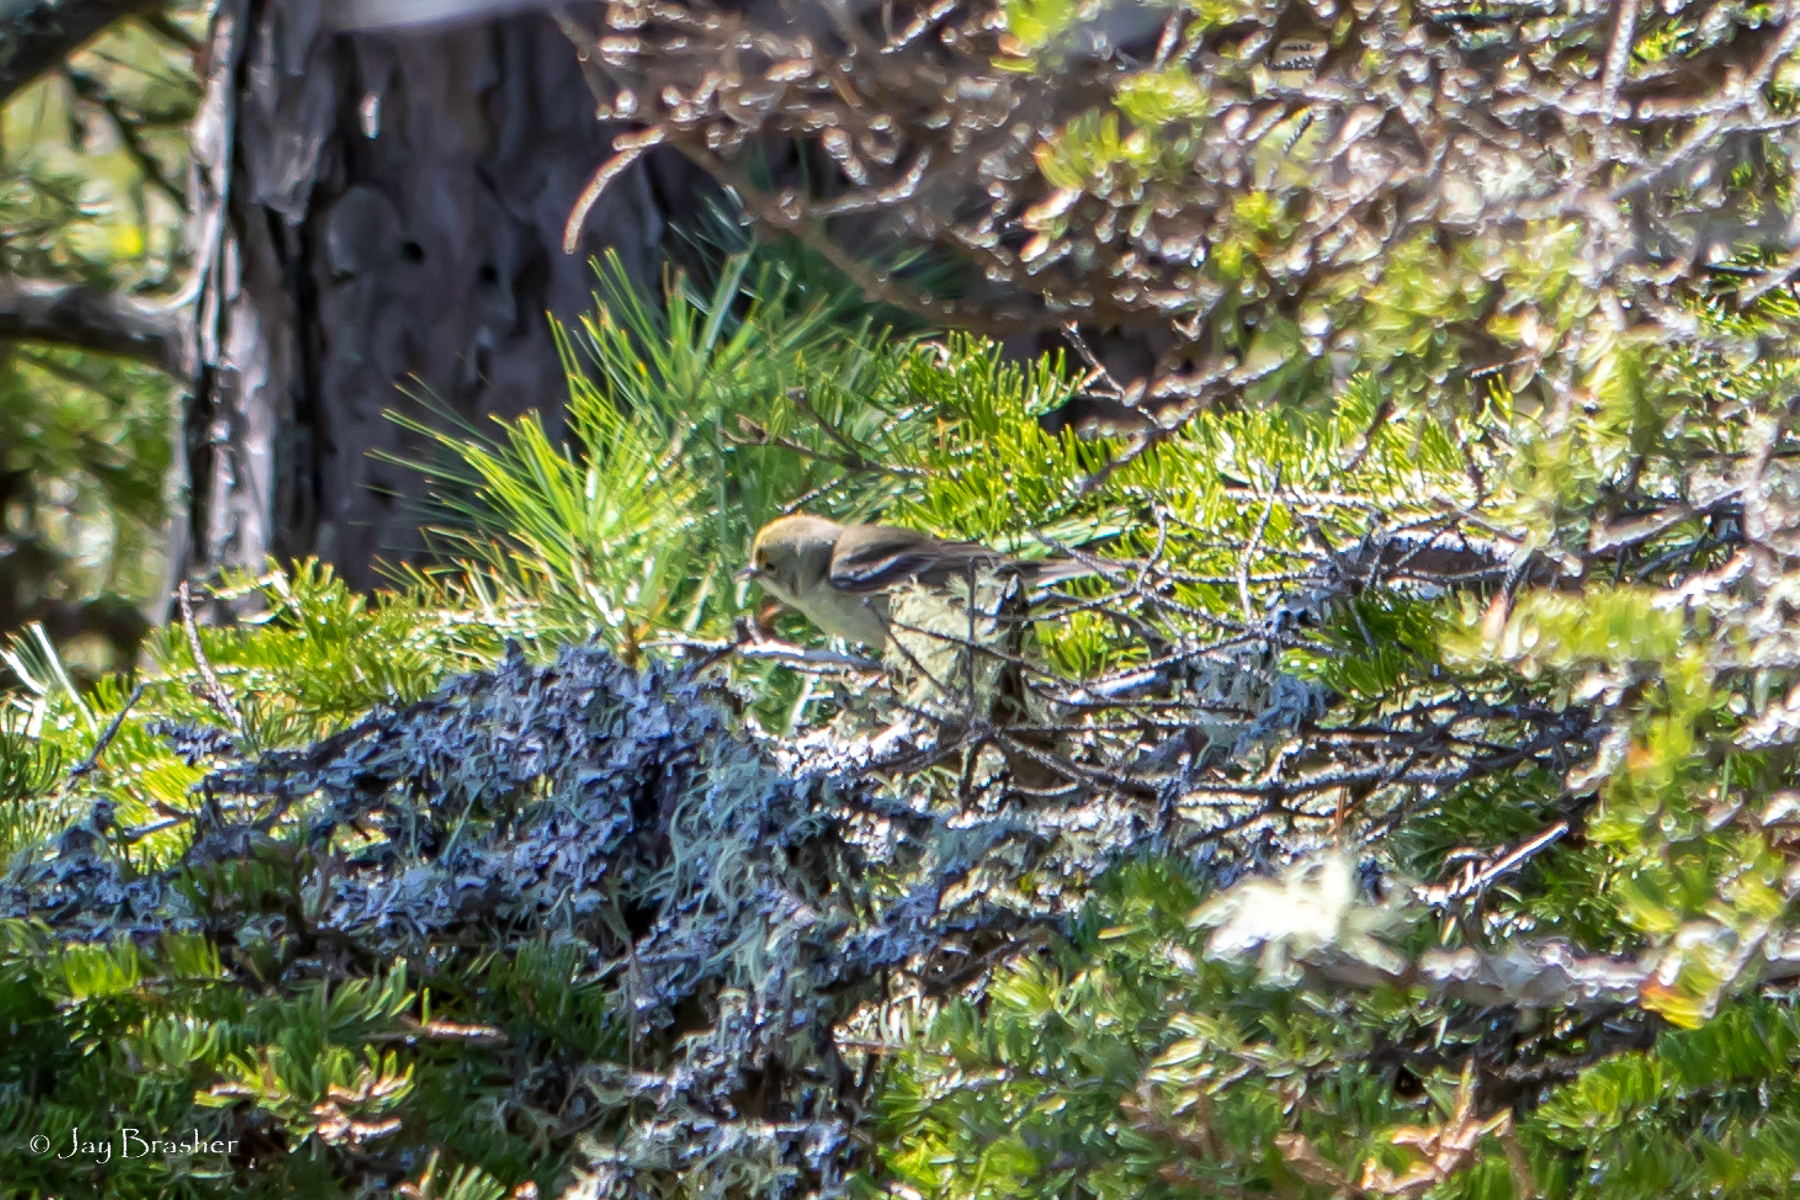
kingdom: Animalia
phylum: Chordata
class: Aves
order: Passeriformes
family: Parulidae
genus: Setophaga
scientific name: Setophaga pinus
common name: Pine warbler
